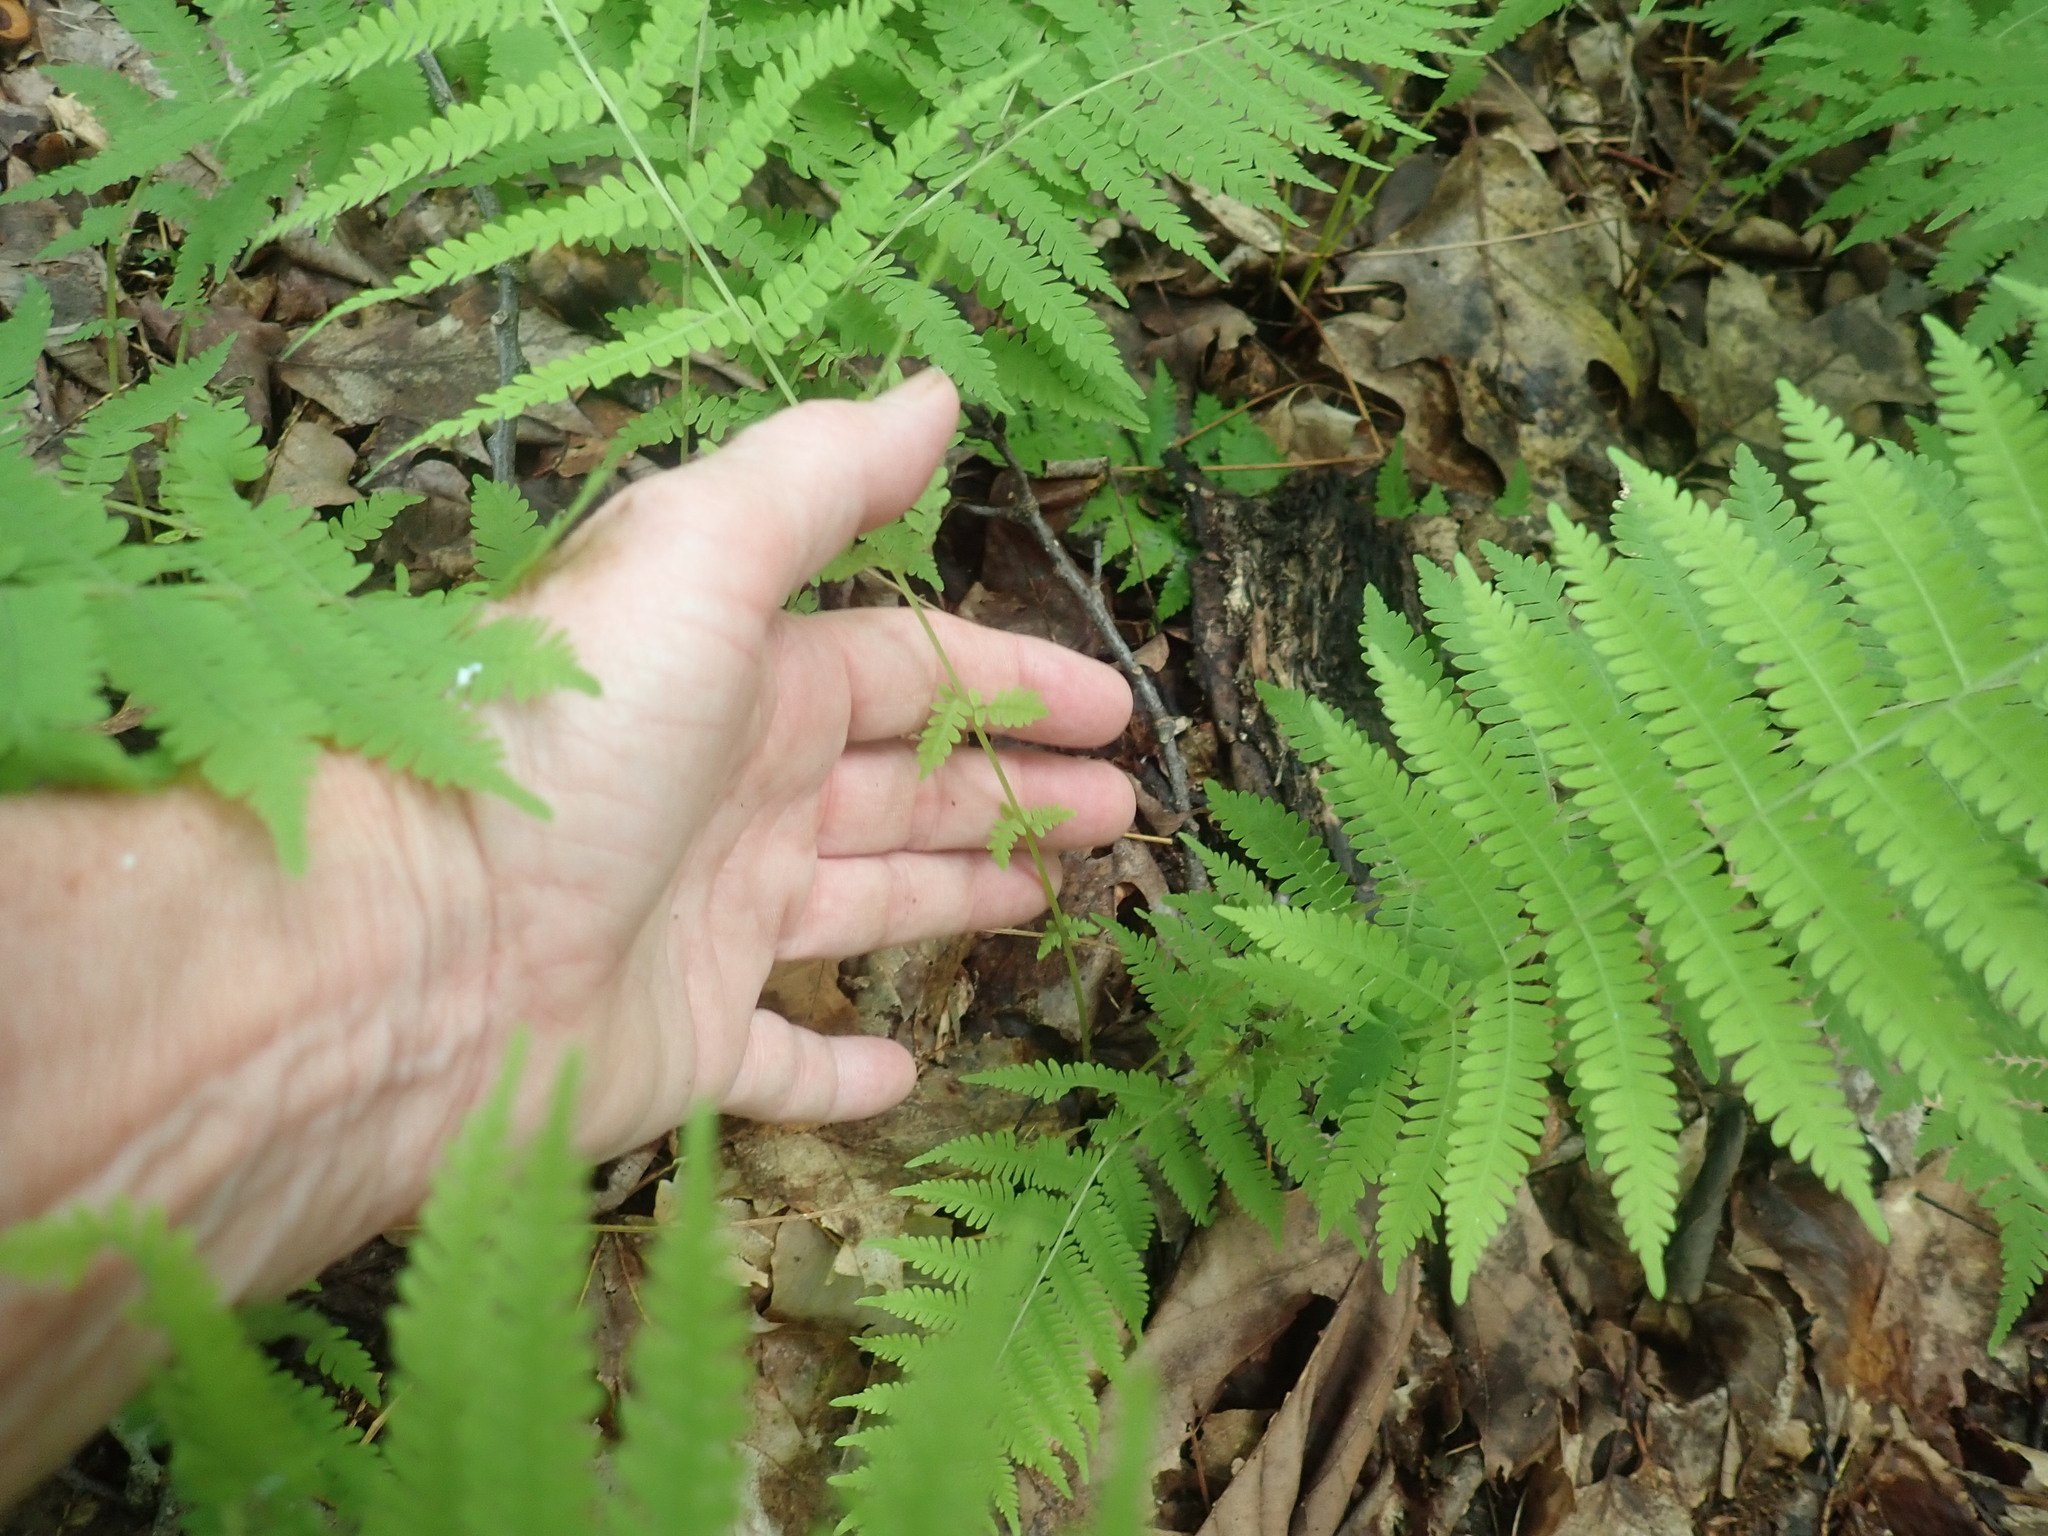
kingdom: Plantae
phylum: Tracheophyta
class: Polypodiopsida
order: Polypodiales
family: Thelypteridaceae
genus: Amauropelta
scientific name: Amauropelta noveboracensis
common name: New york fern
